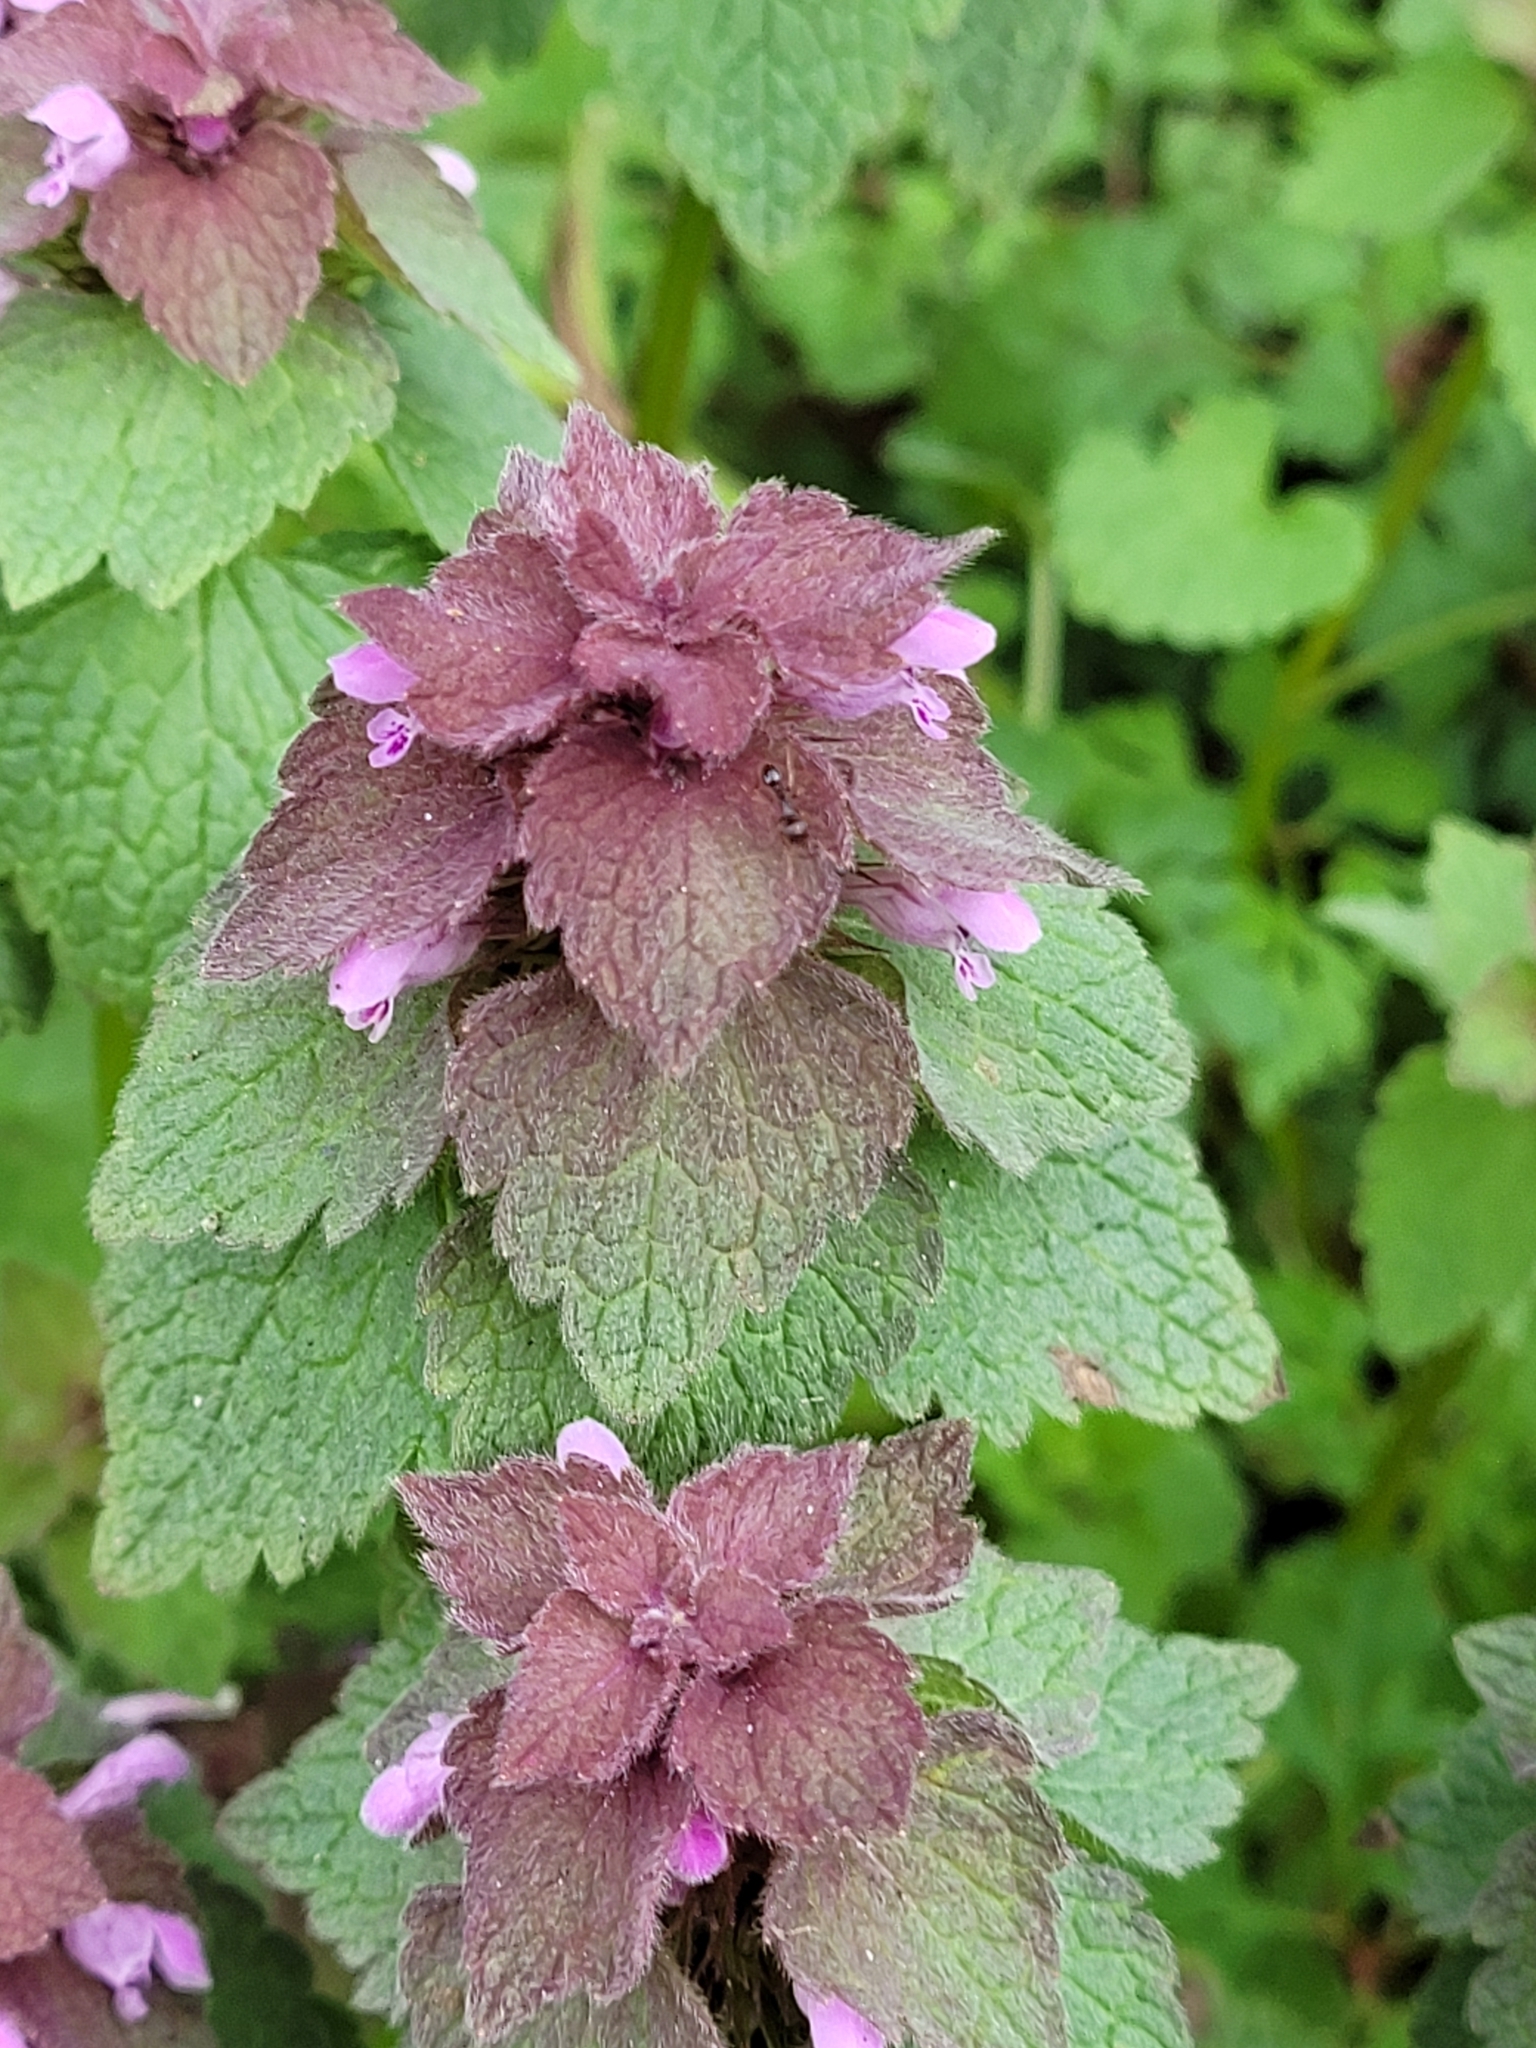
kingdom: Plantae
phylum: Tracheophyta
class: Magnoliopsida
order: Lamiales
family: Lamiaceae
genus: Lamium
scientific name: Lamium purpureum
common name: Red dead-nettle
